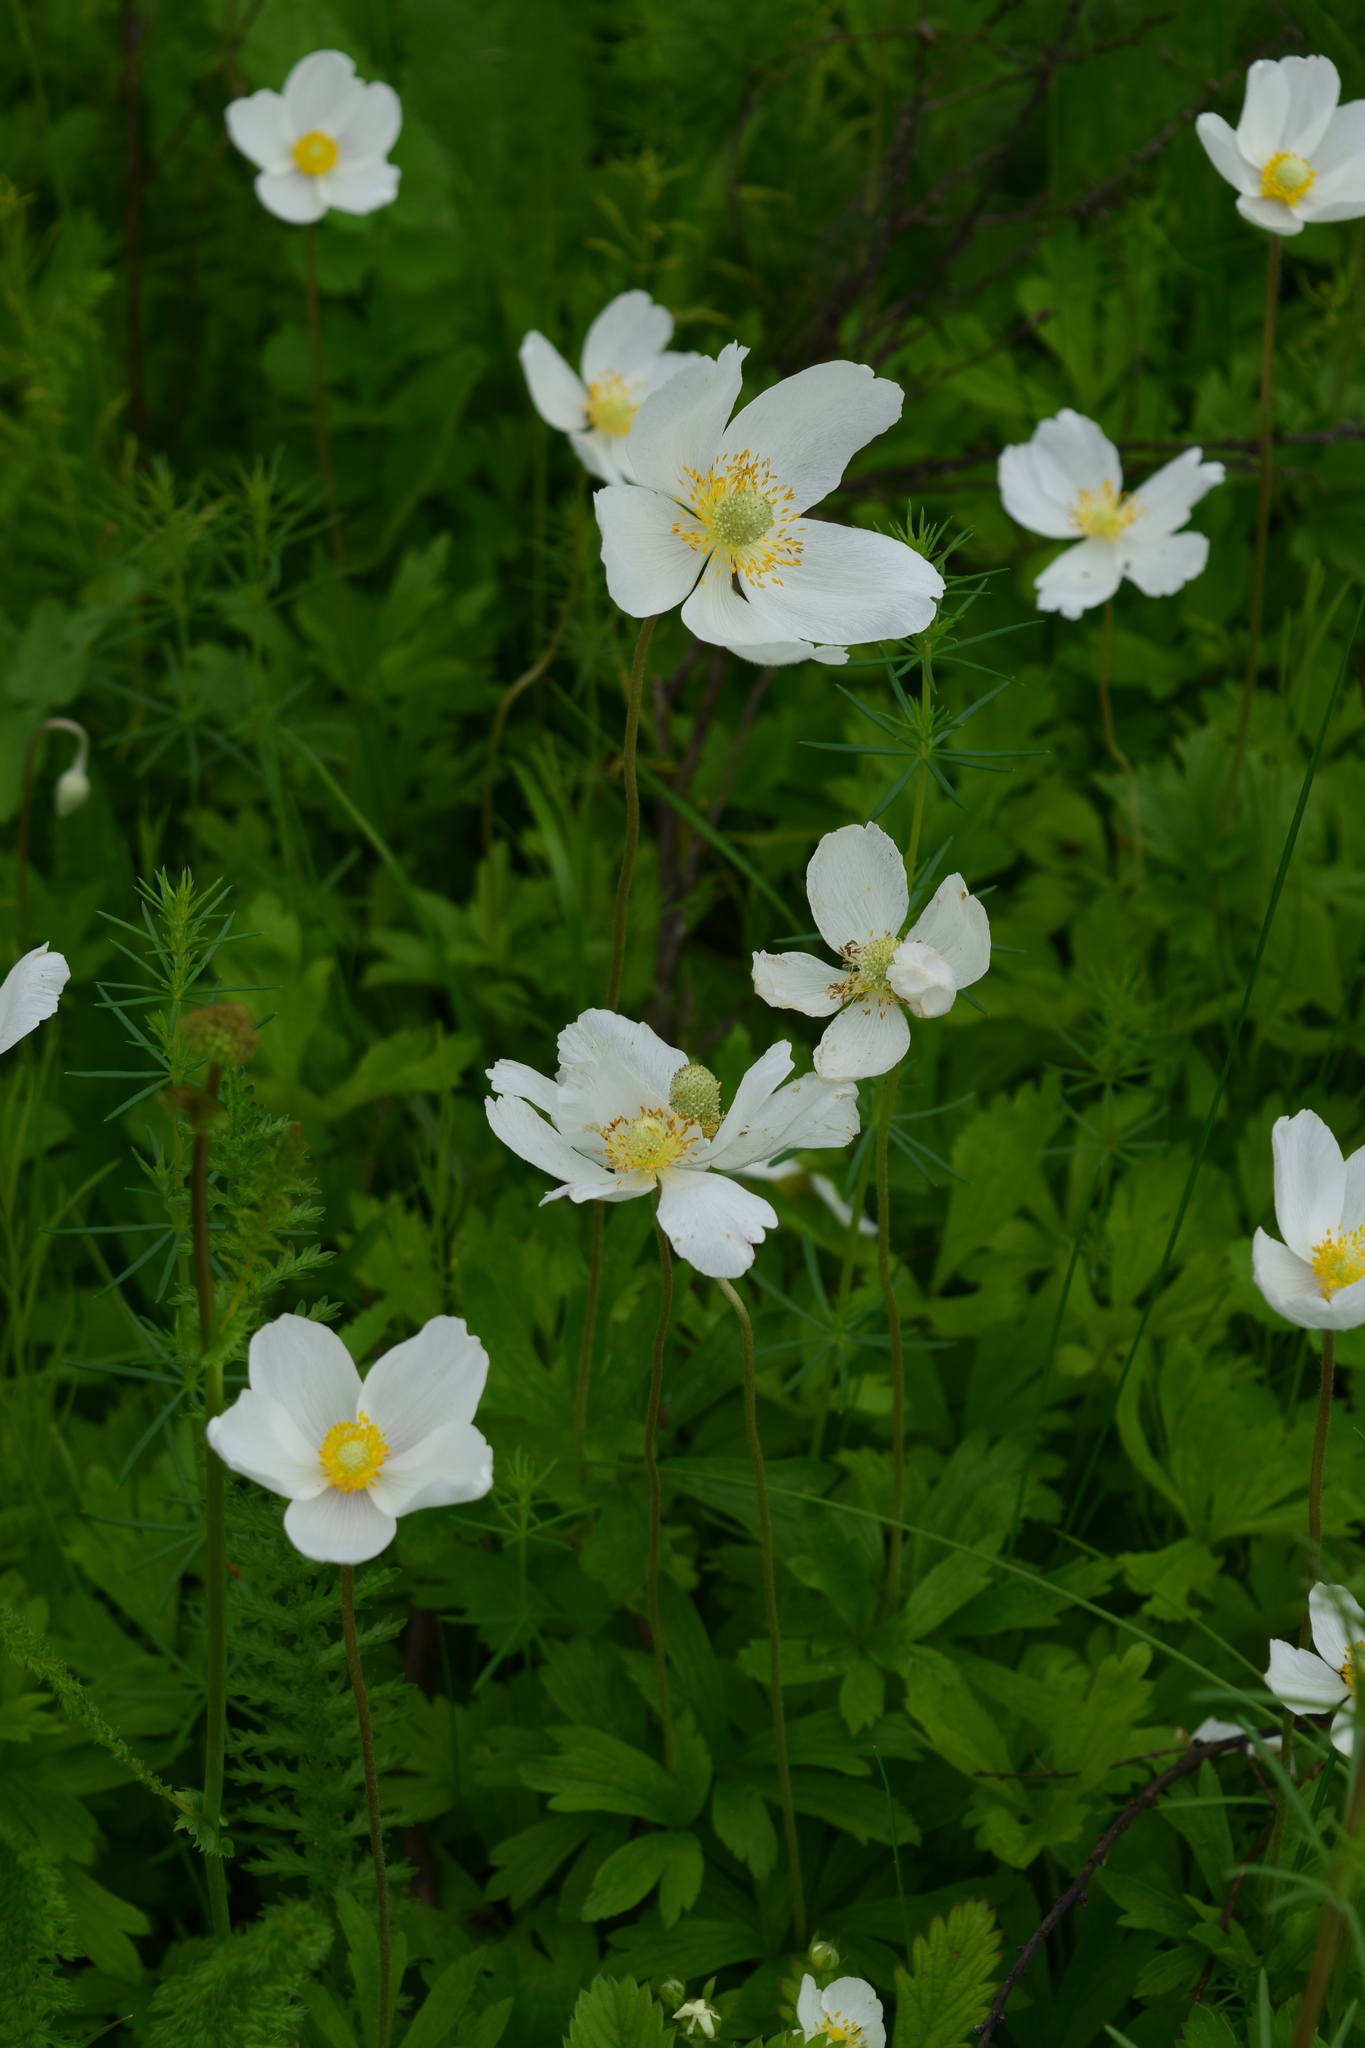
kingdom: Plantae
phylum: Tracheophyta
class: Magnoliopsida
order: Ranunculales
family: Ranunculaceae
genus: Anemone
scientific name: Anemone sylvestris
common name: Snowdrop anemone
